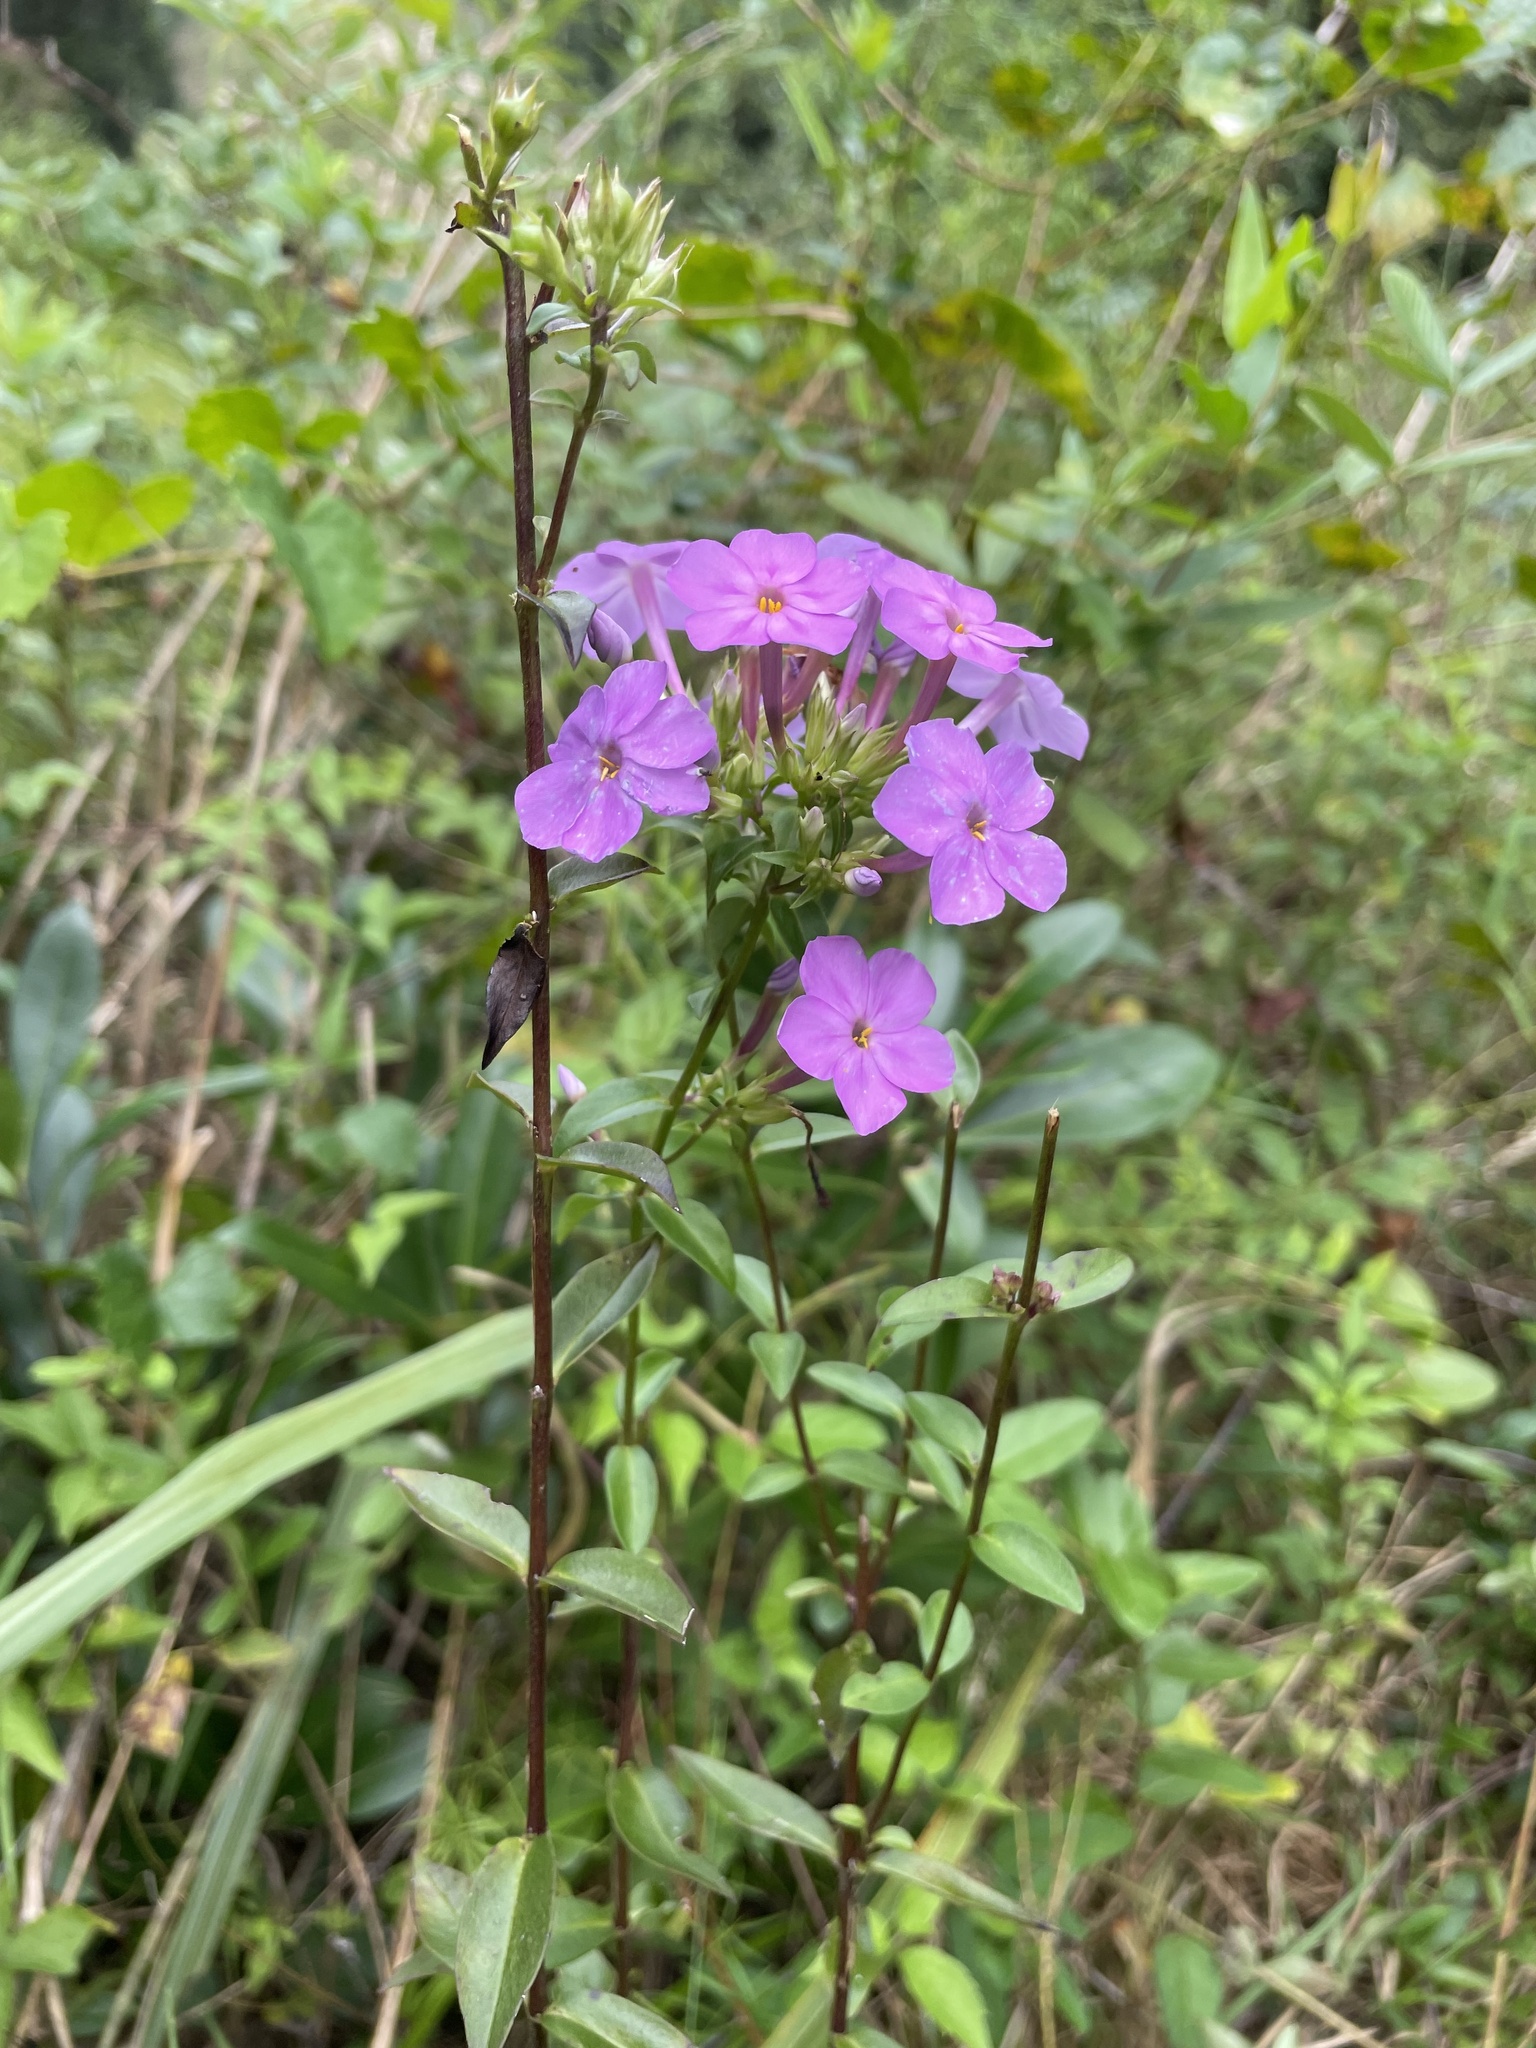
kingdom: Plantae
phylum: Tracheophyta
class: Magnoliopsida
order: Ericales
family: Polemoniaceae
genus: Phlox
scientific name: Phlox carolina
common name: Thick-leaf phlox
